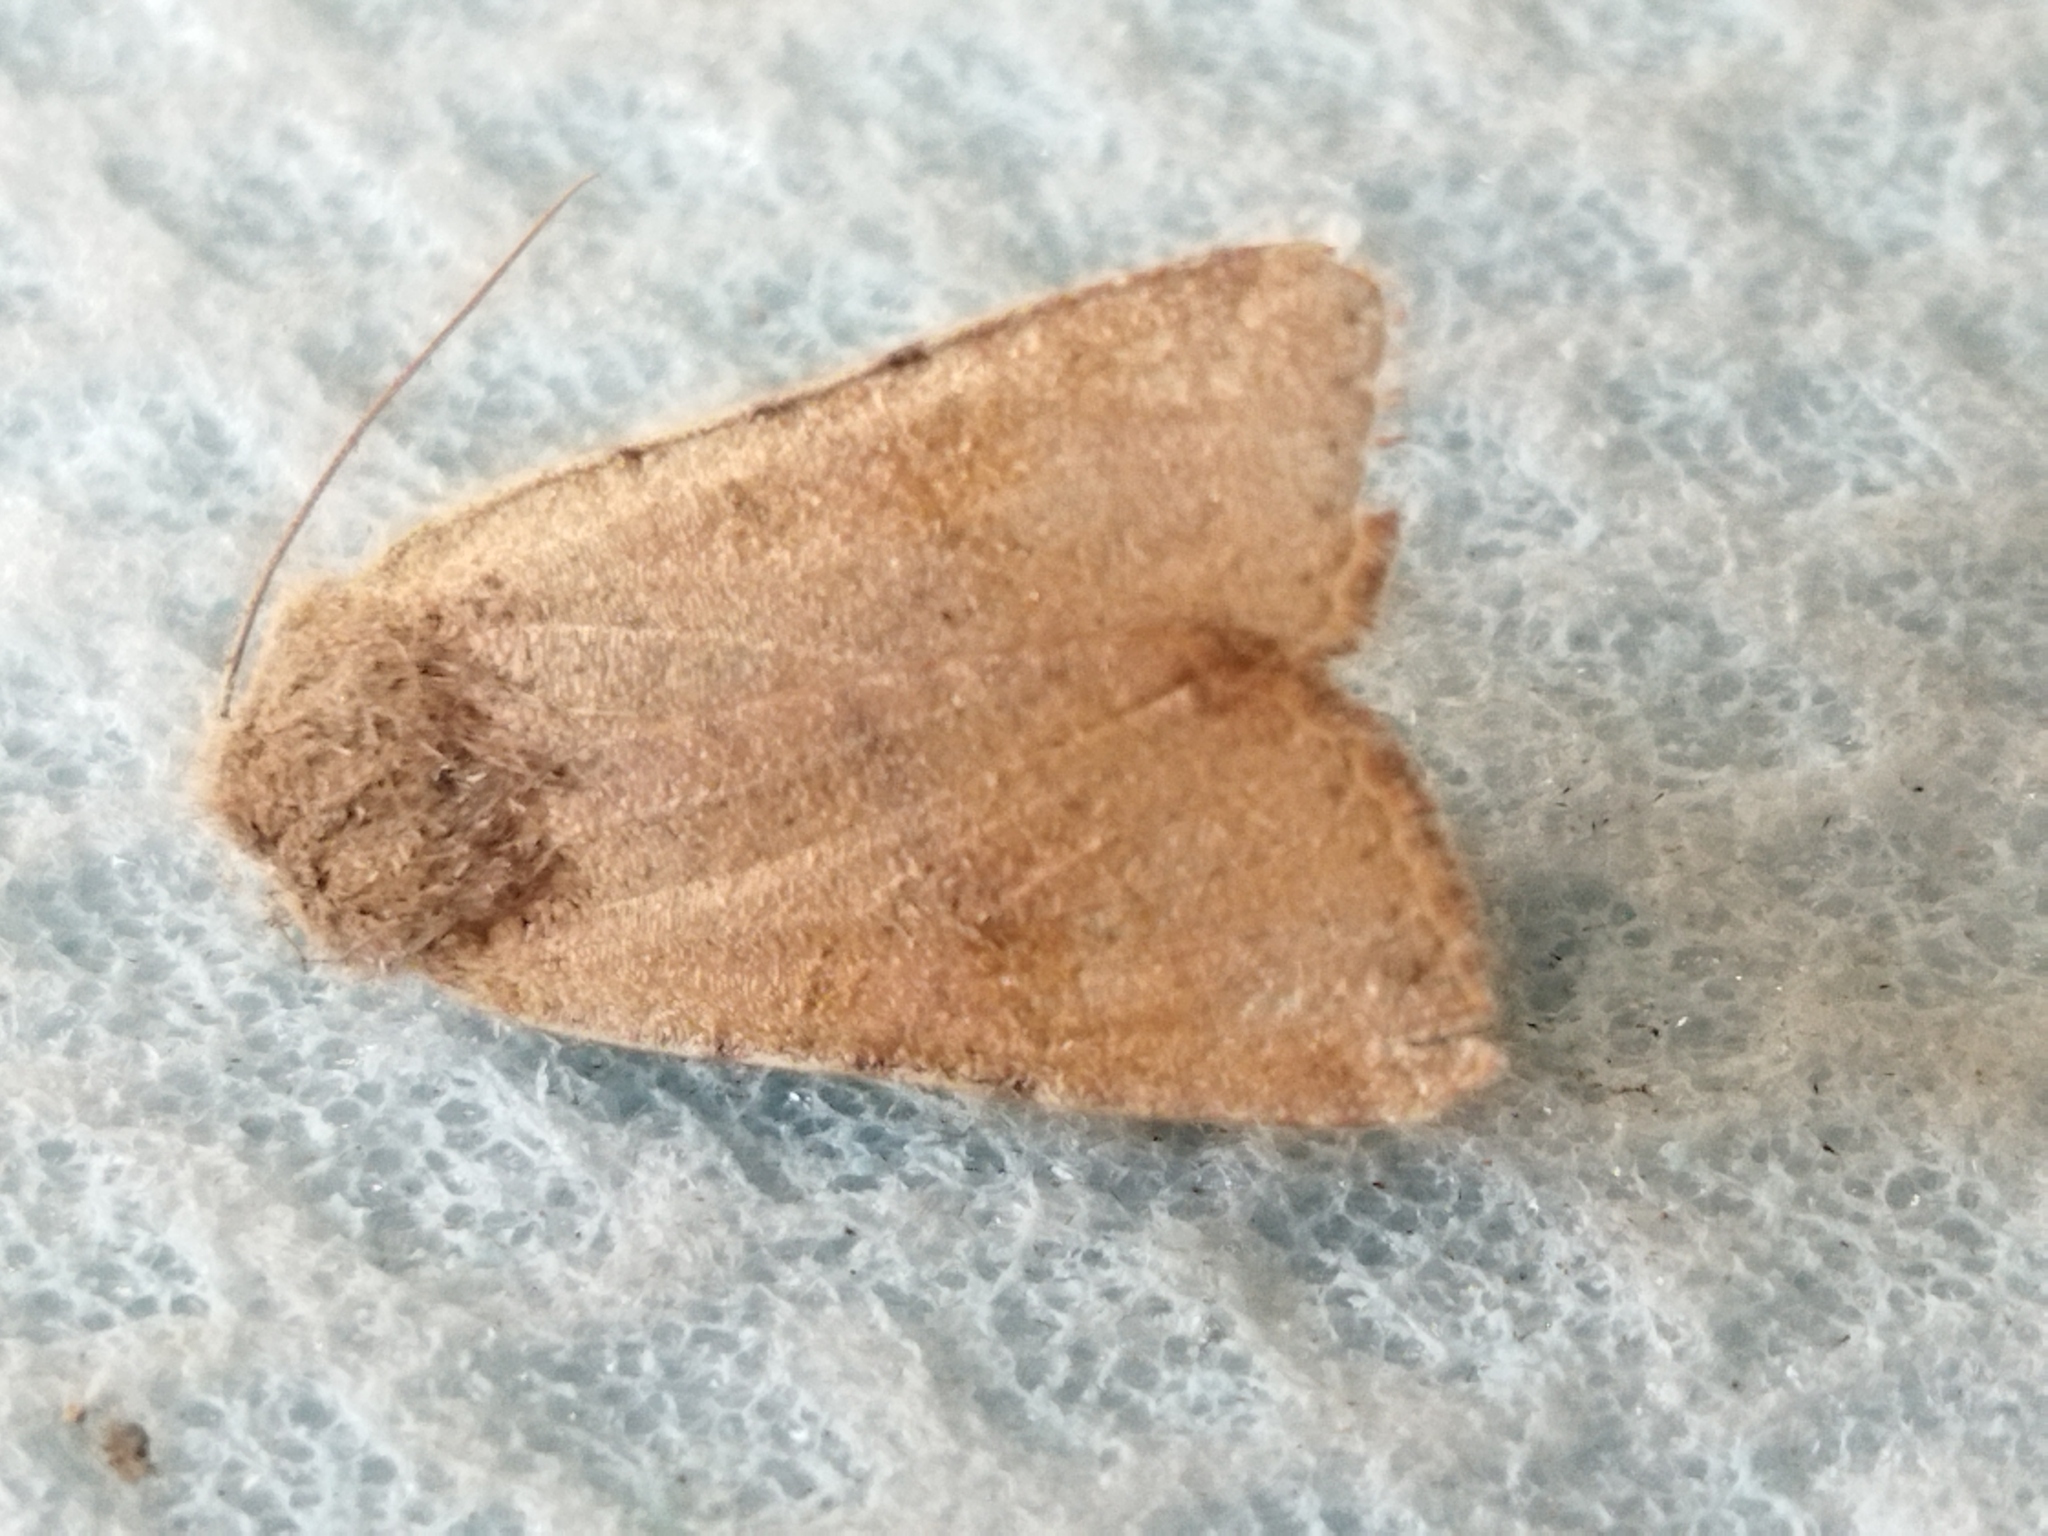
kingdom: Animalia
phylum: Arthropoda
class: Insecta
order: Lepidoptera
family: Noctuidae
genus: Agrochola
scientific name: Agrochola lychnidis
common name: Beaded chestnut
